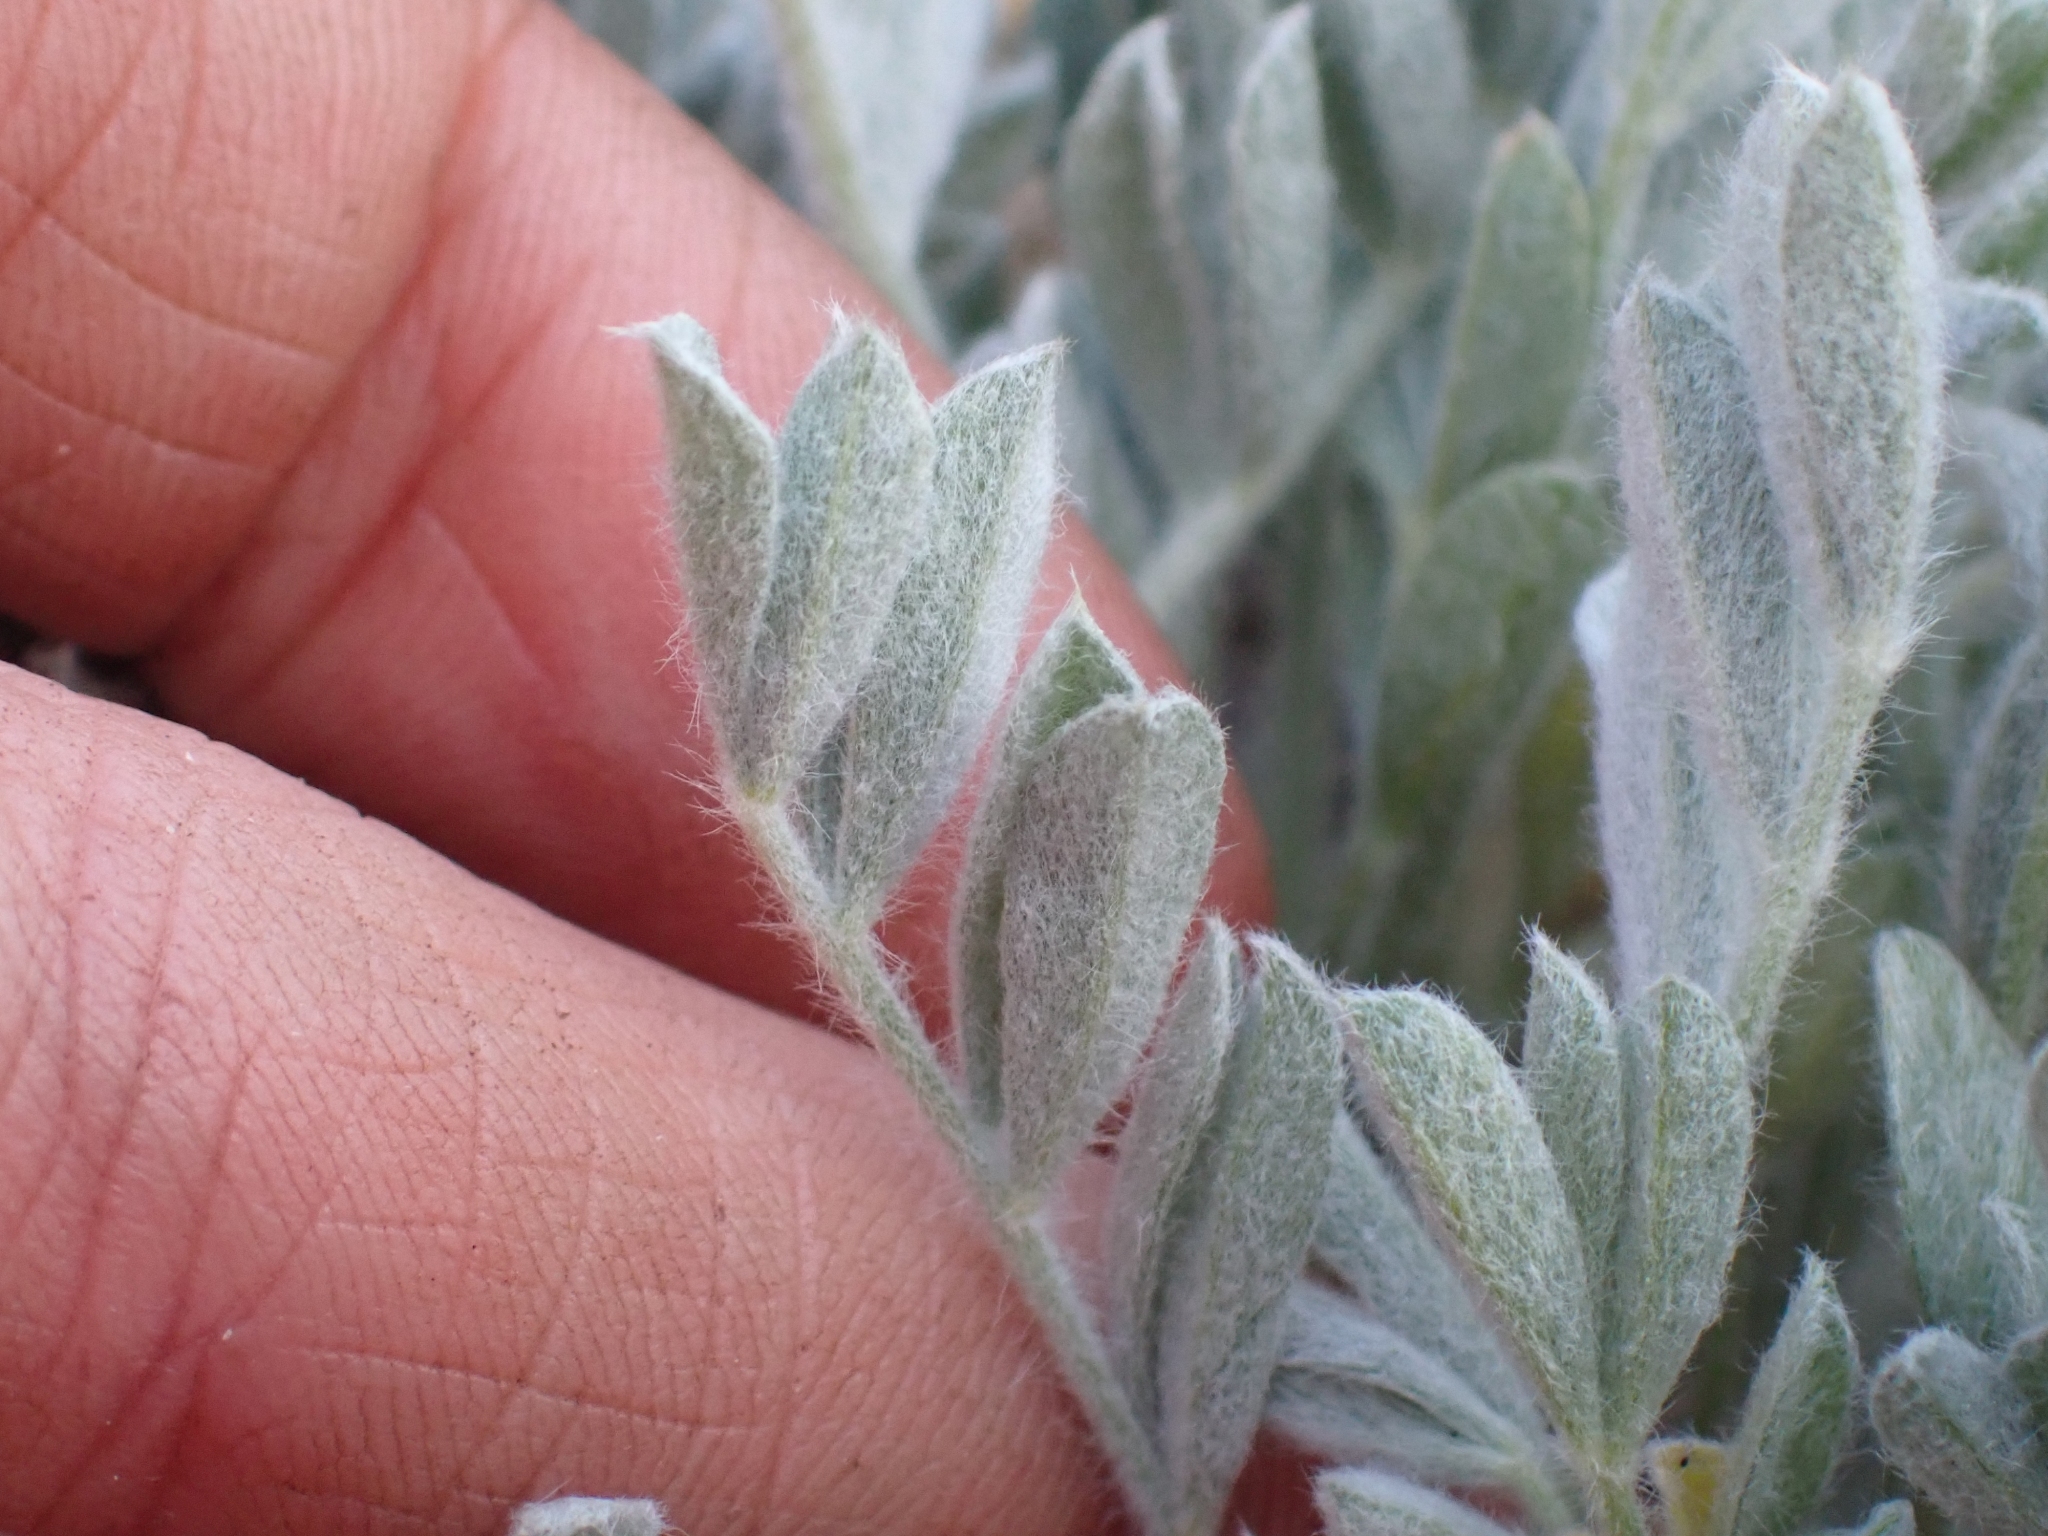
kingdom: Plantae
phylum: Tracheophyta
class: Magnoliopsida
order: Fabales
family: Fabaceae
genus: Astragalus
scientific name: Astragalus purshii
